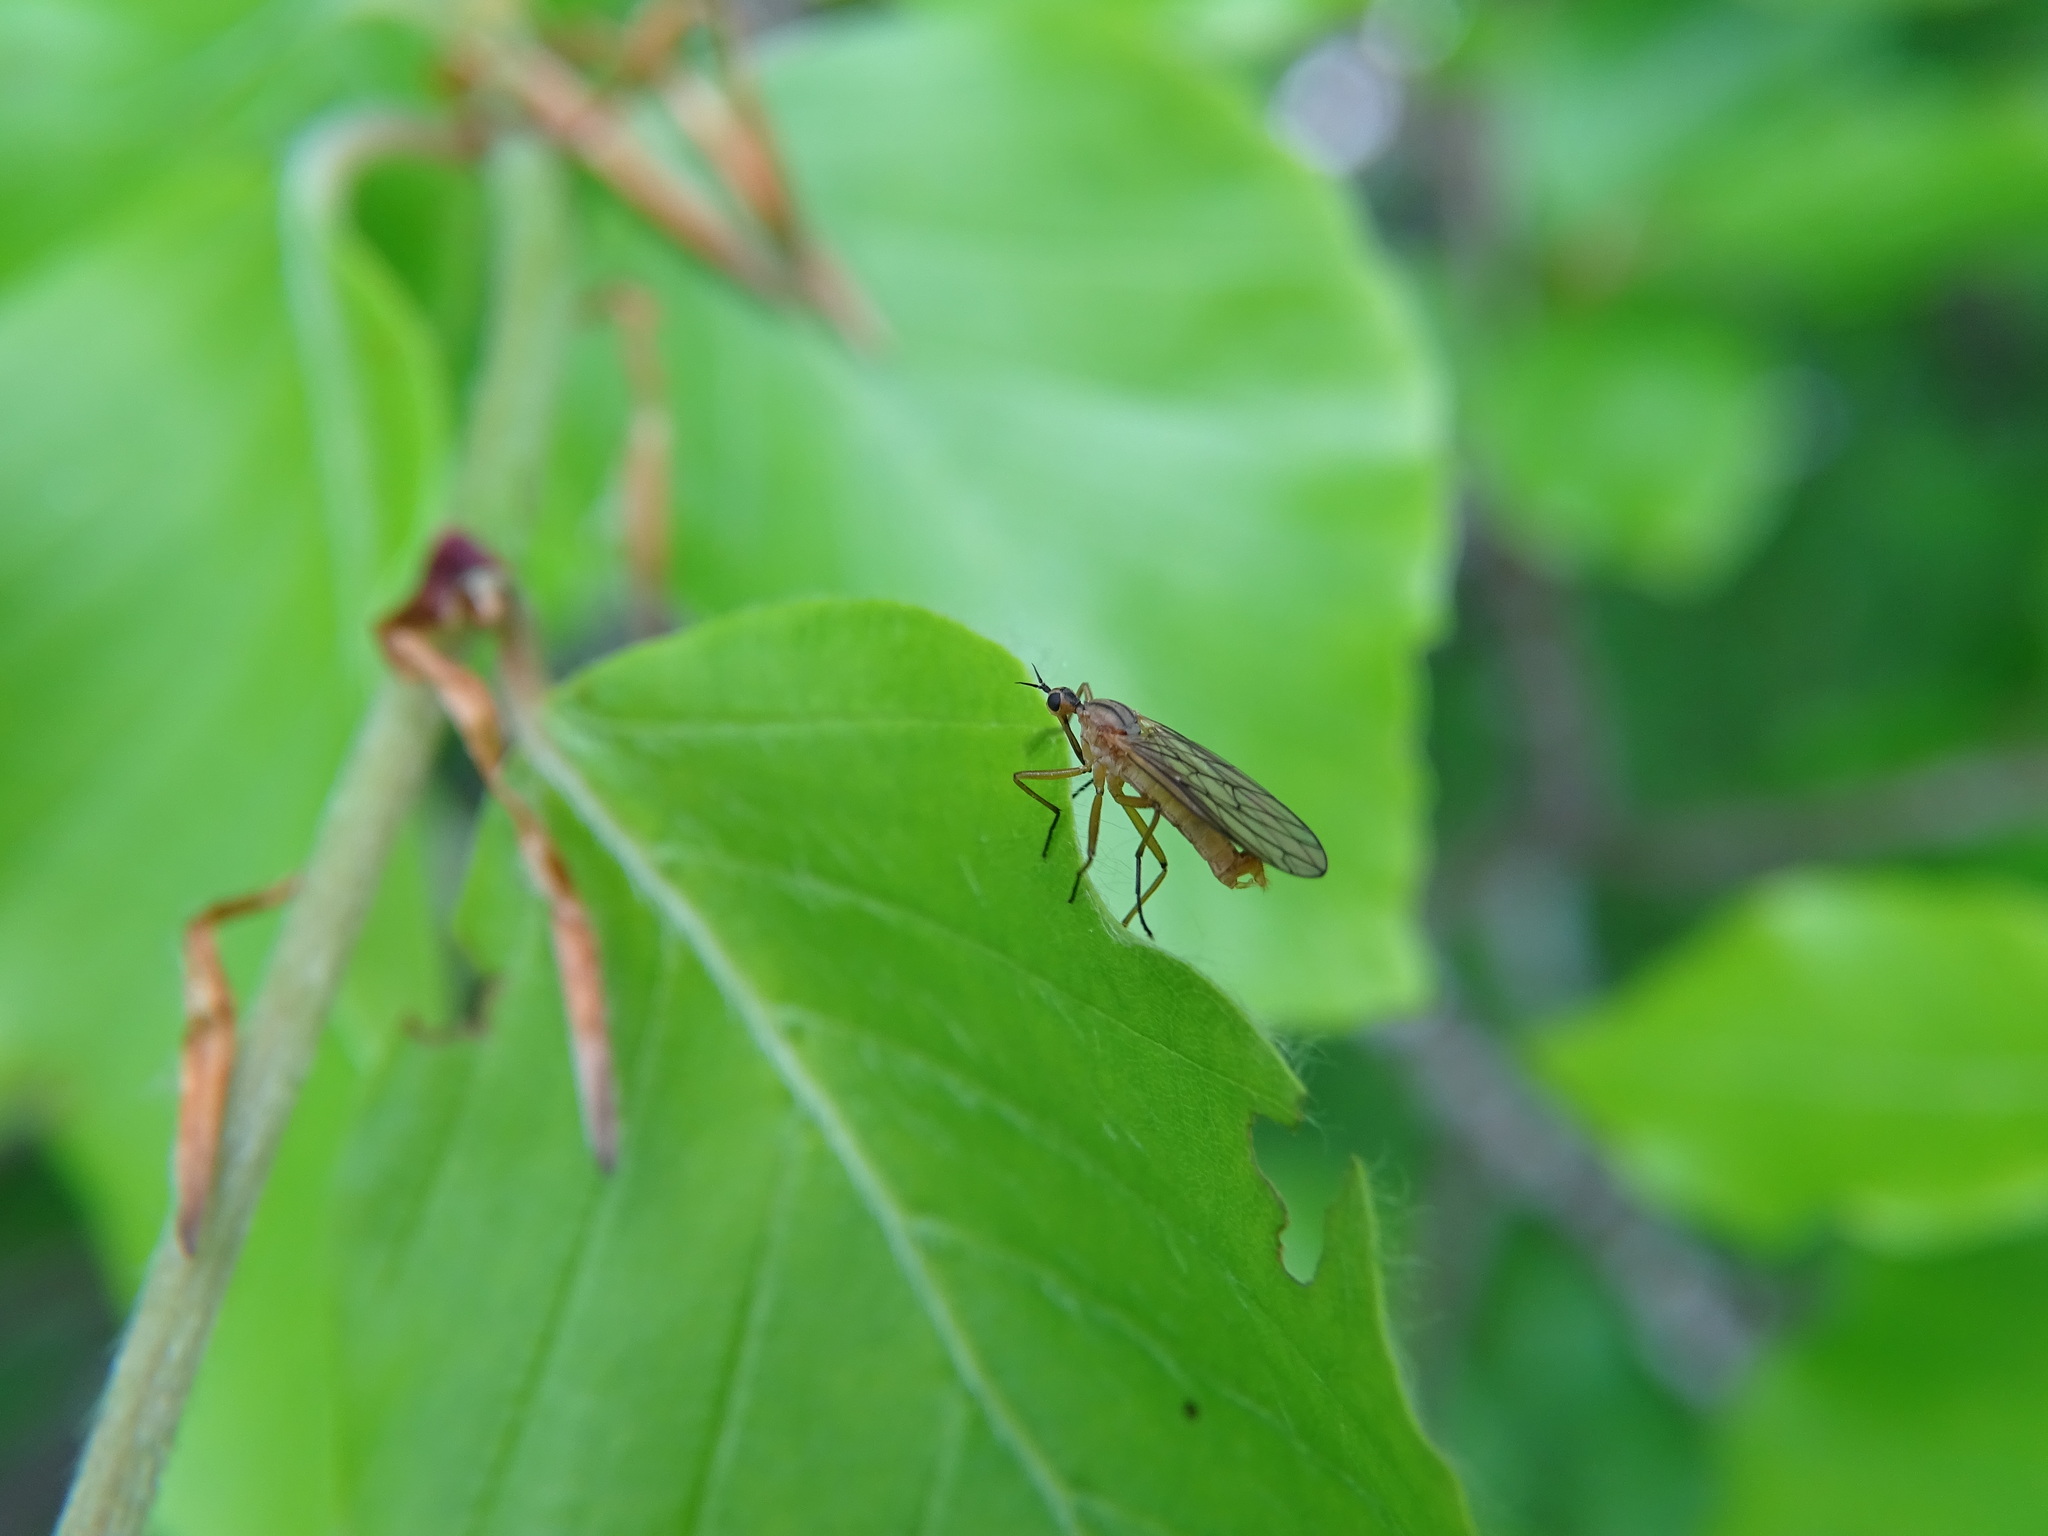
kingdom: Animalia
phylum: Arthropoda
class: Insecta
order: Diptera
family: Empididae
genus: Empis
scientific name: Empis diagramma
